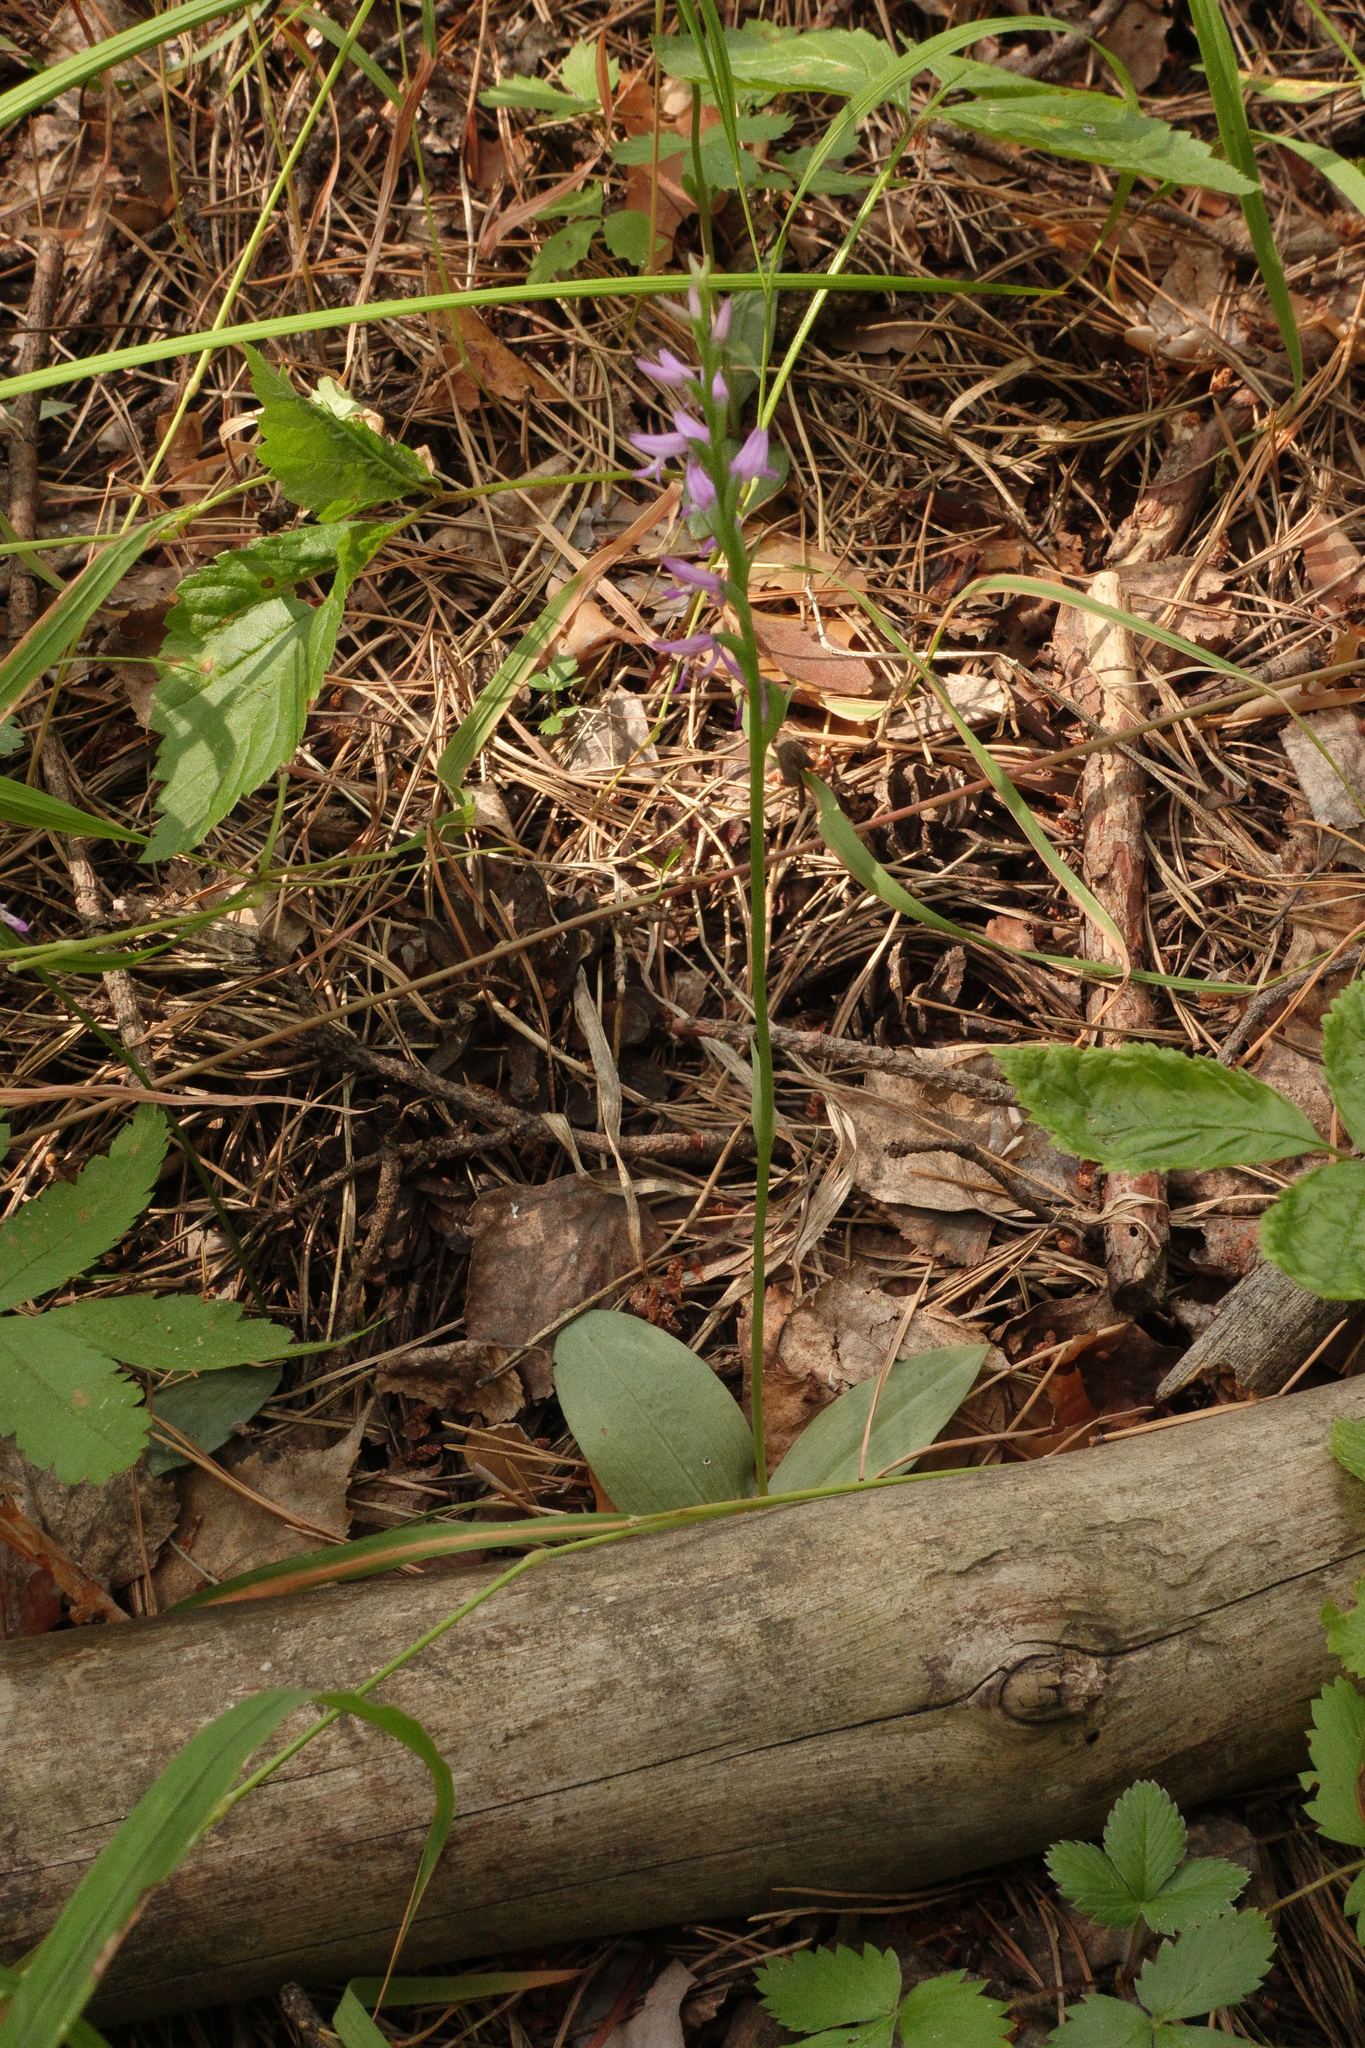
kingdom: Plantae
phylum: Tracheophyta
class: Liliopsida
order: Asparagales
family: Orchidaceae
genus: Hemipilia
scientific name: Hemipilia cucullata
